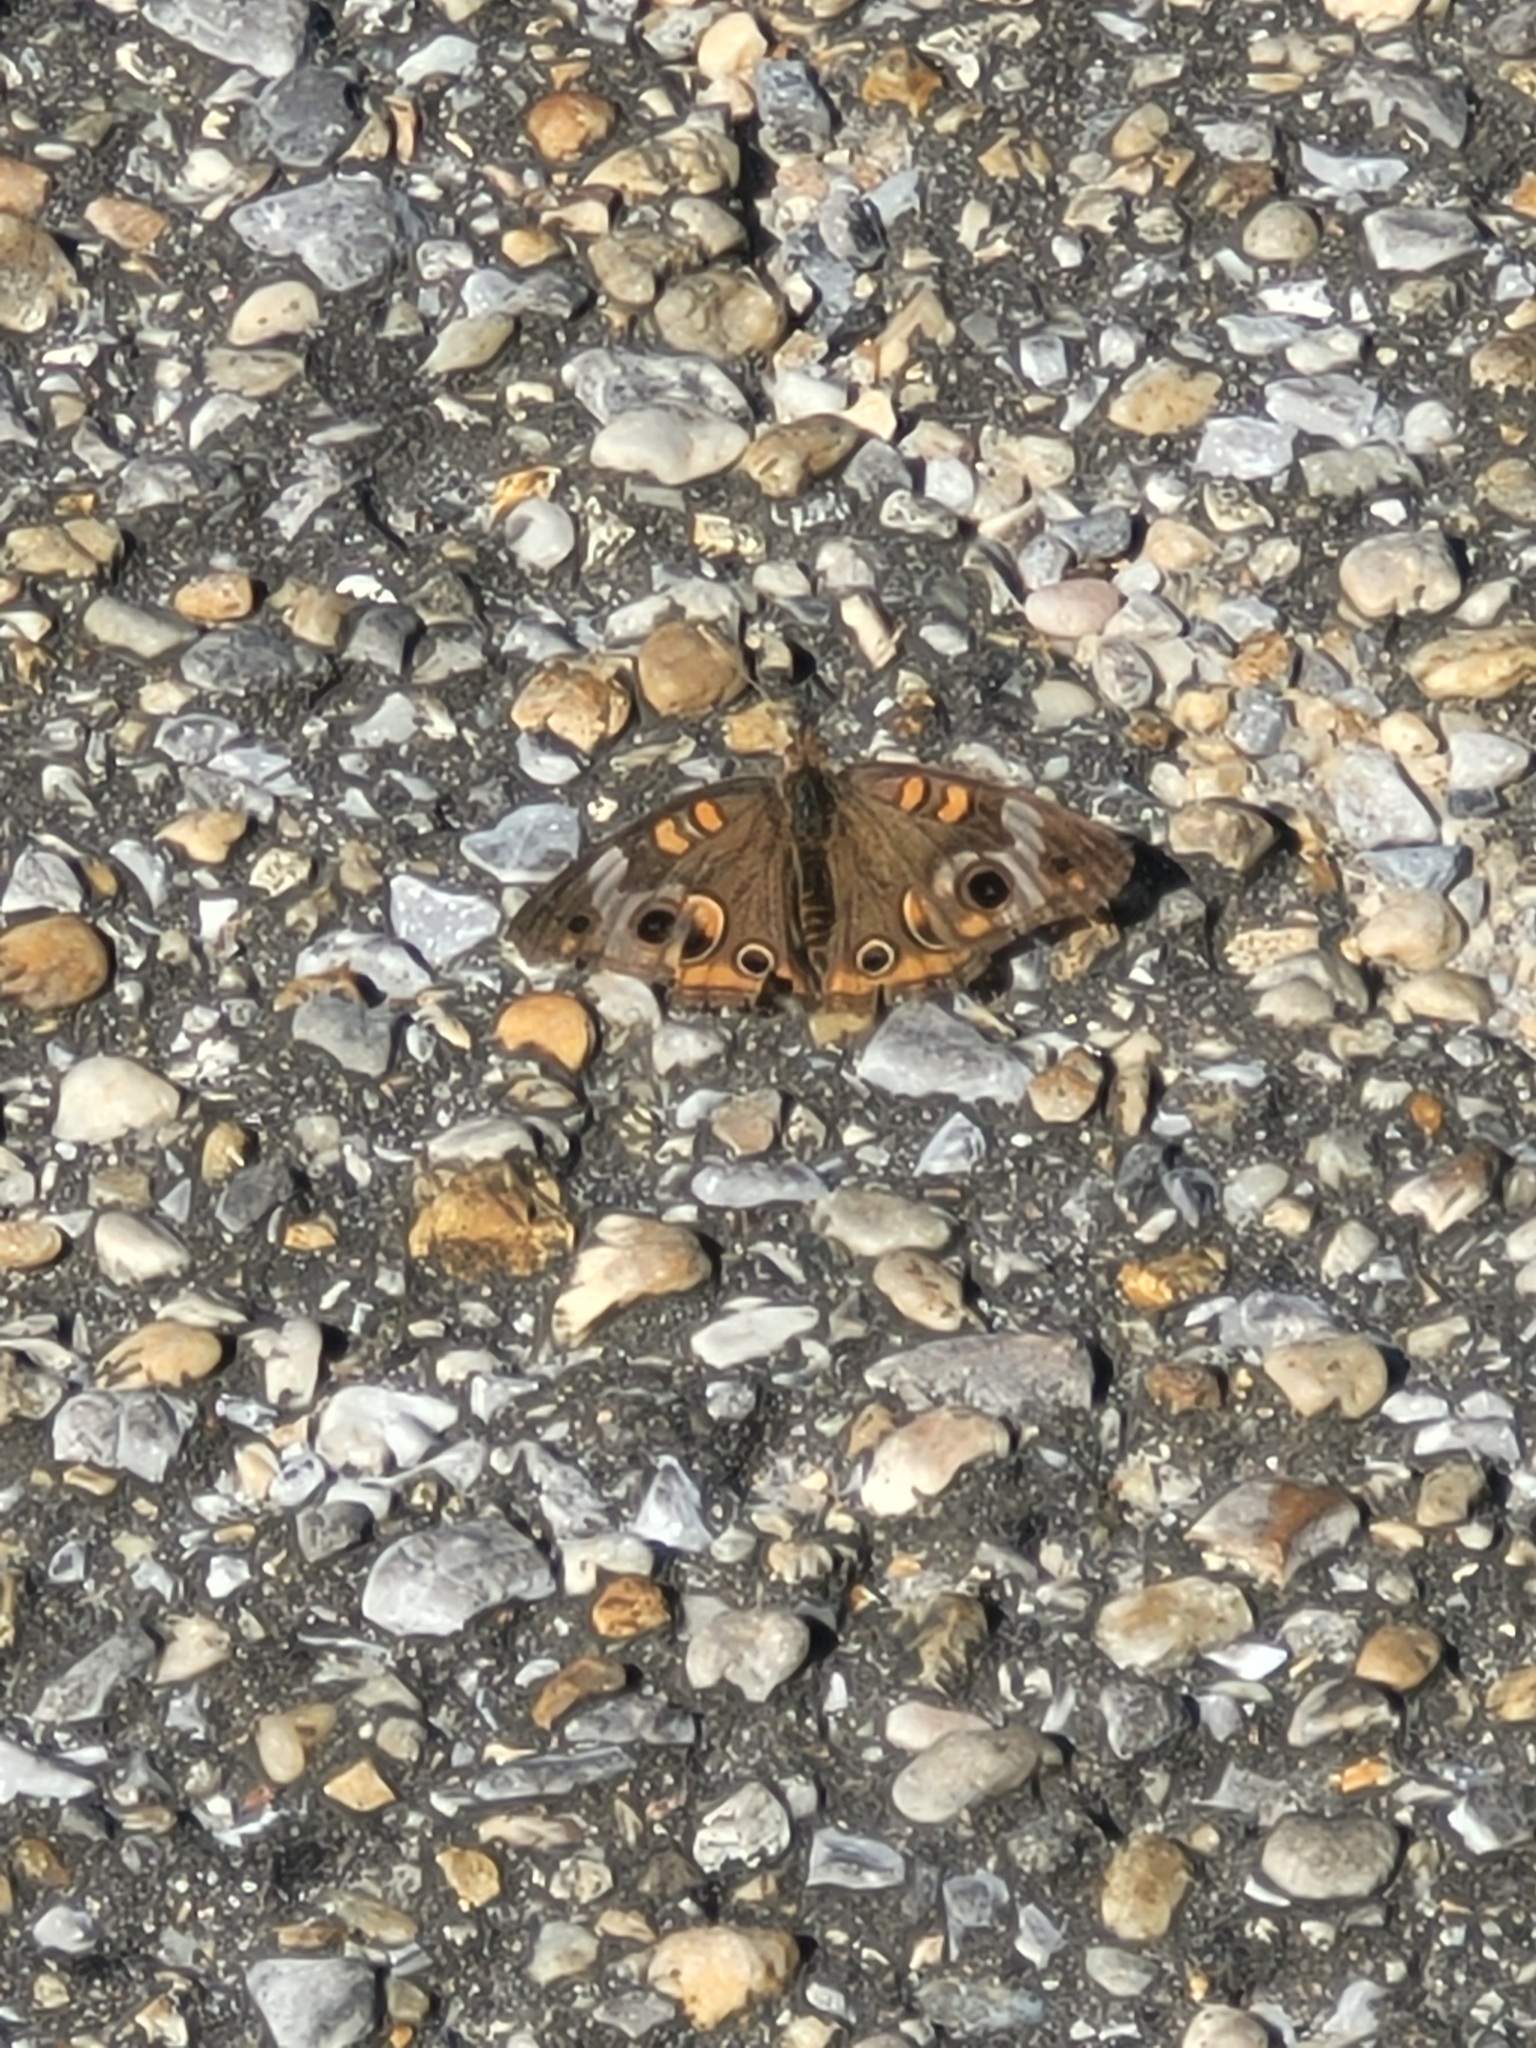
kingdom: Animalia
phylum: Arthropoda
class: Insecta
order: Lepidoptera
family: Nymphalidae
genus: Junonia
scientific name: Junonia coenia
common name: Common buckeye
